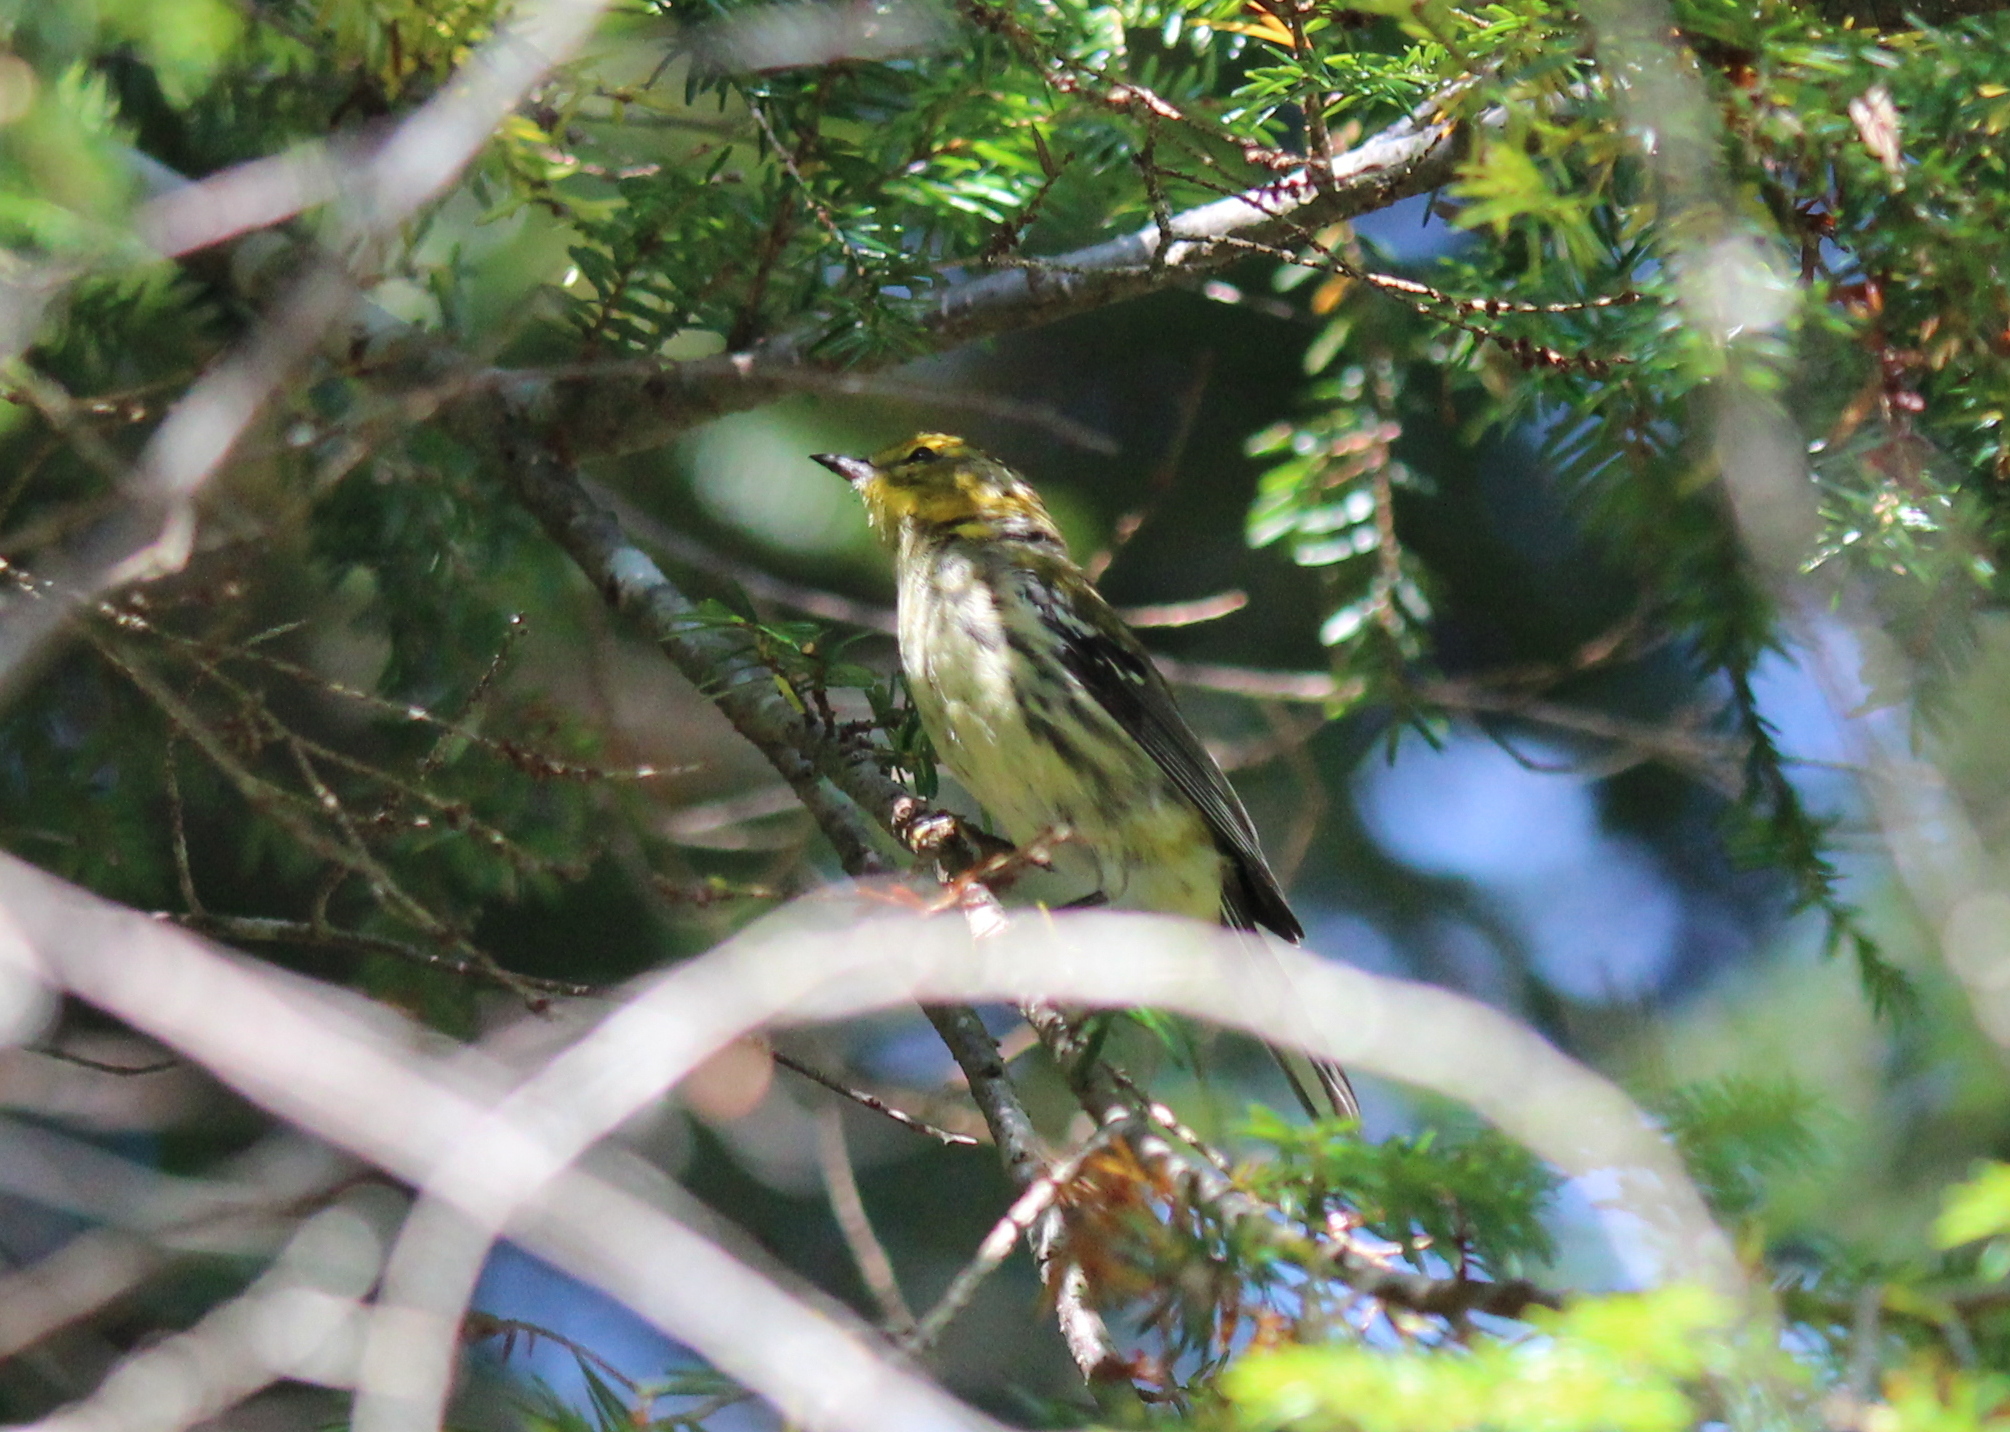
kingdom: Animalia
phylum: Chordata
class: Aves
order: Passeriformes
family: Parulidae
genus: Setophaga
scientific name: Setophaga virens
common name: Black-throated green warbler
